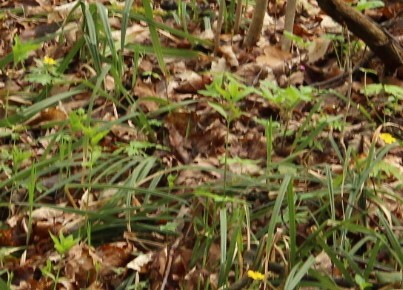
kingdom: Plantae
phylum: Tracheophyta
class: Liliopsida
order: Poales
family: Cyperaceae
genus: Carex
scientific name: Carex pilosa
